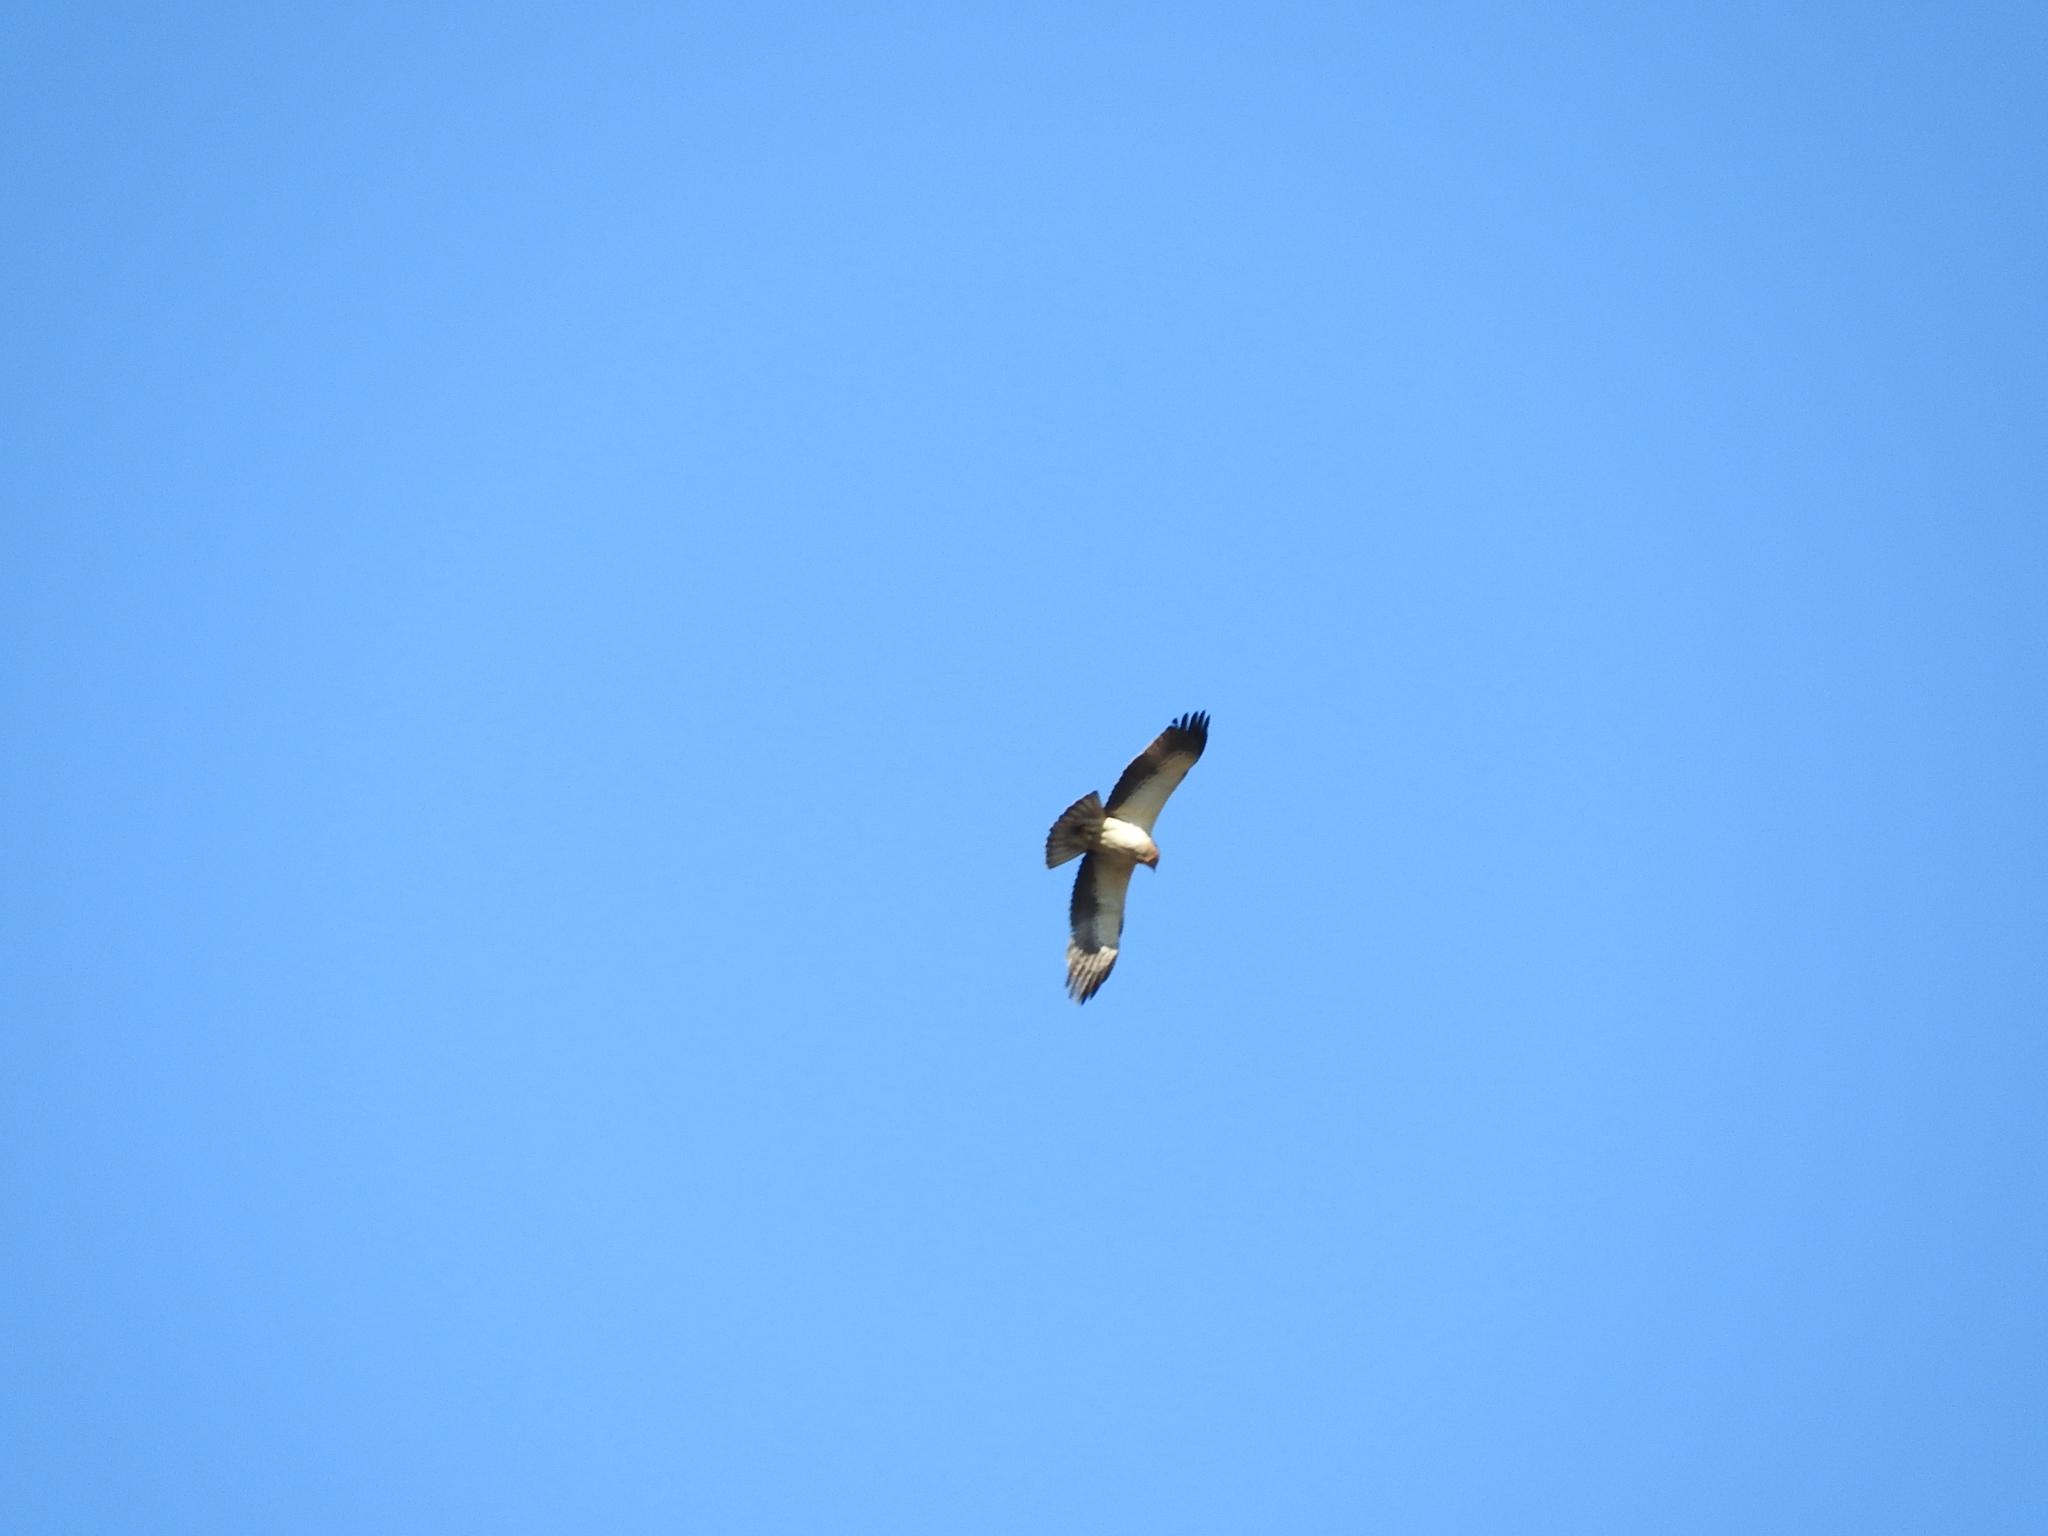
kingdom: Animalia
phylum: Chordata
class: Aves
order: Accipitriformes
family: Accipitridae
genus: Hieraaetus
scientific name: Hieraaetus pennatus
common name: Booted eagle
